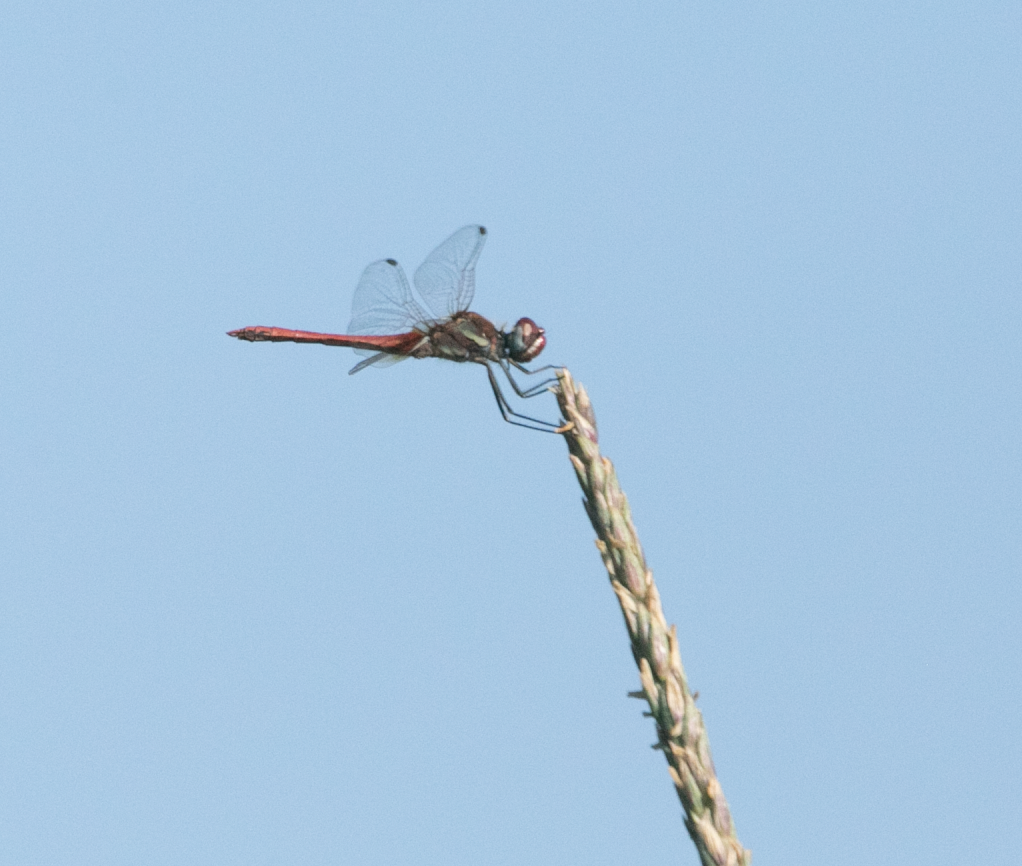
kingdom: Animalia
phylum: Arthropoda
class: Insecta
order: Odonata
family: Libellulidae
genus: Sympetrum
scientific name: Sympetrum fonscolombii
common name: Red-veined darter
